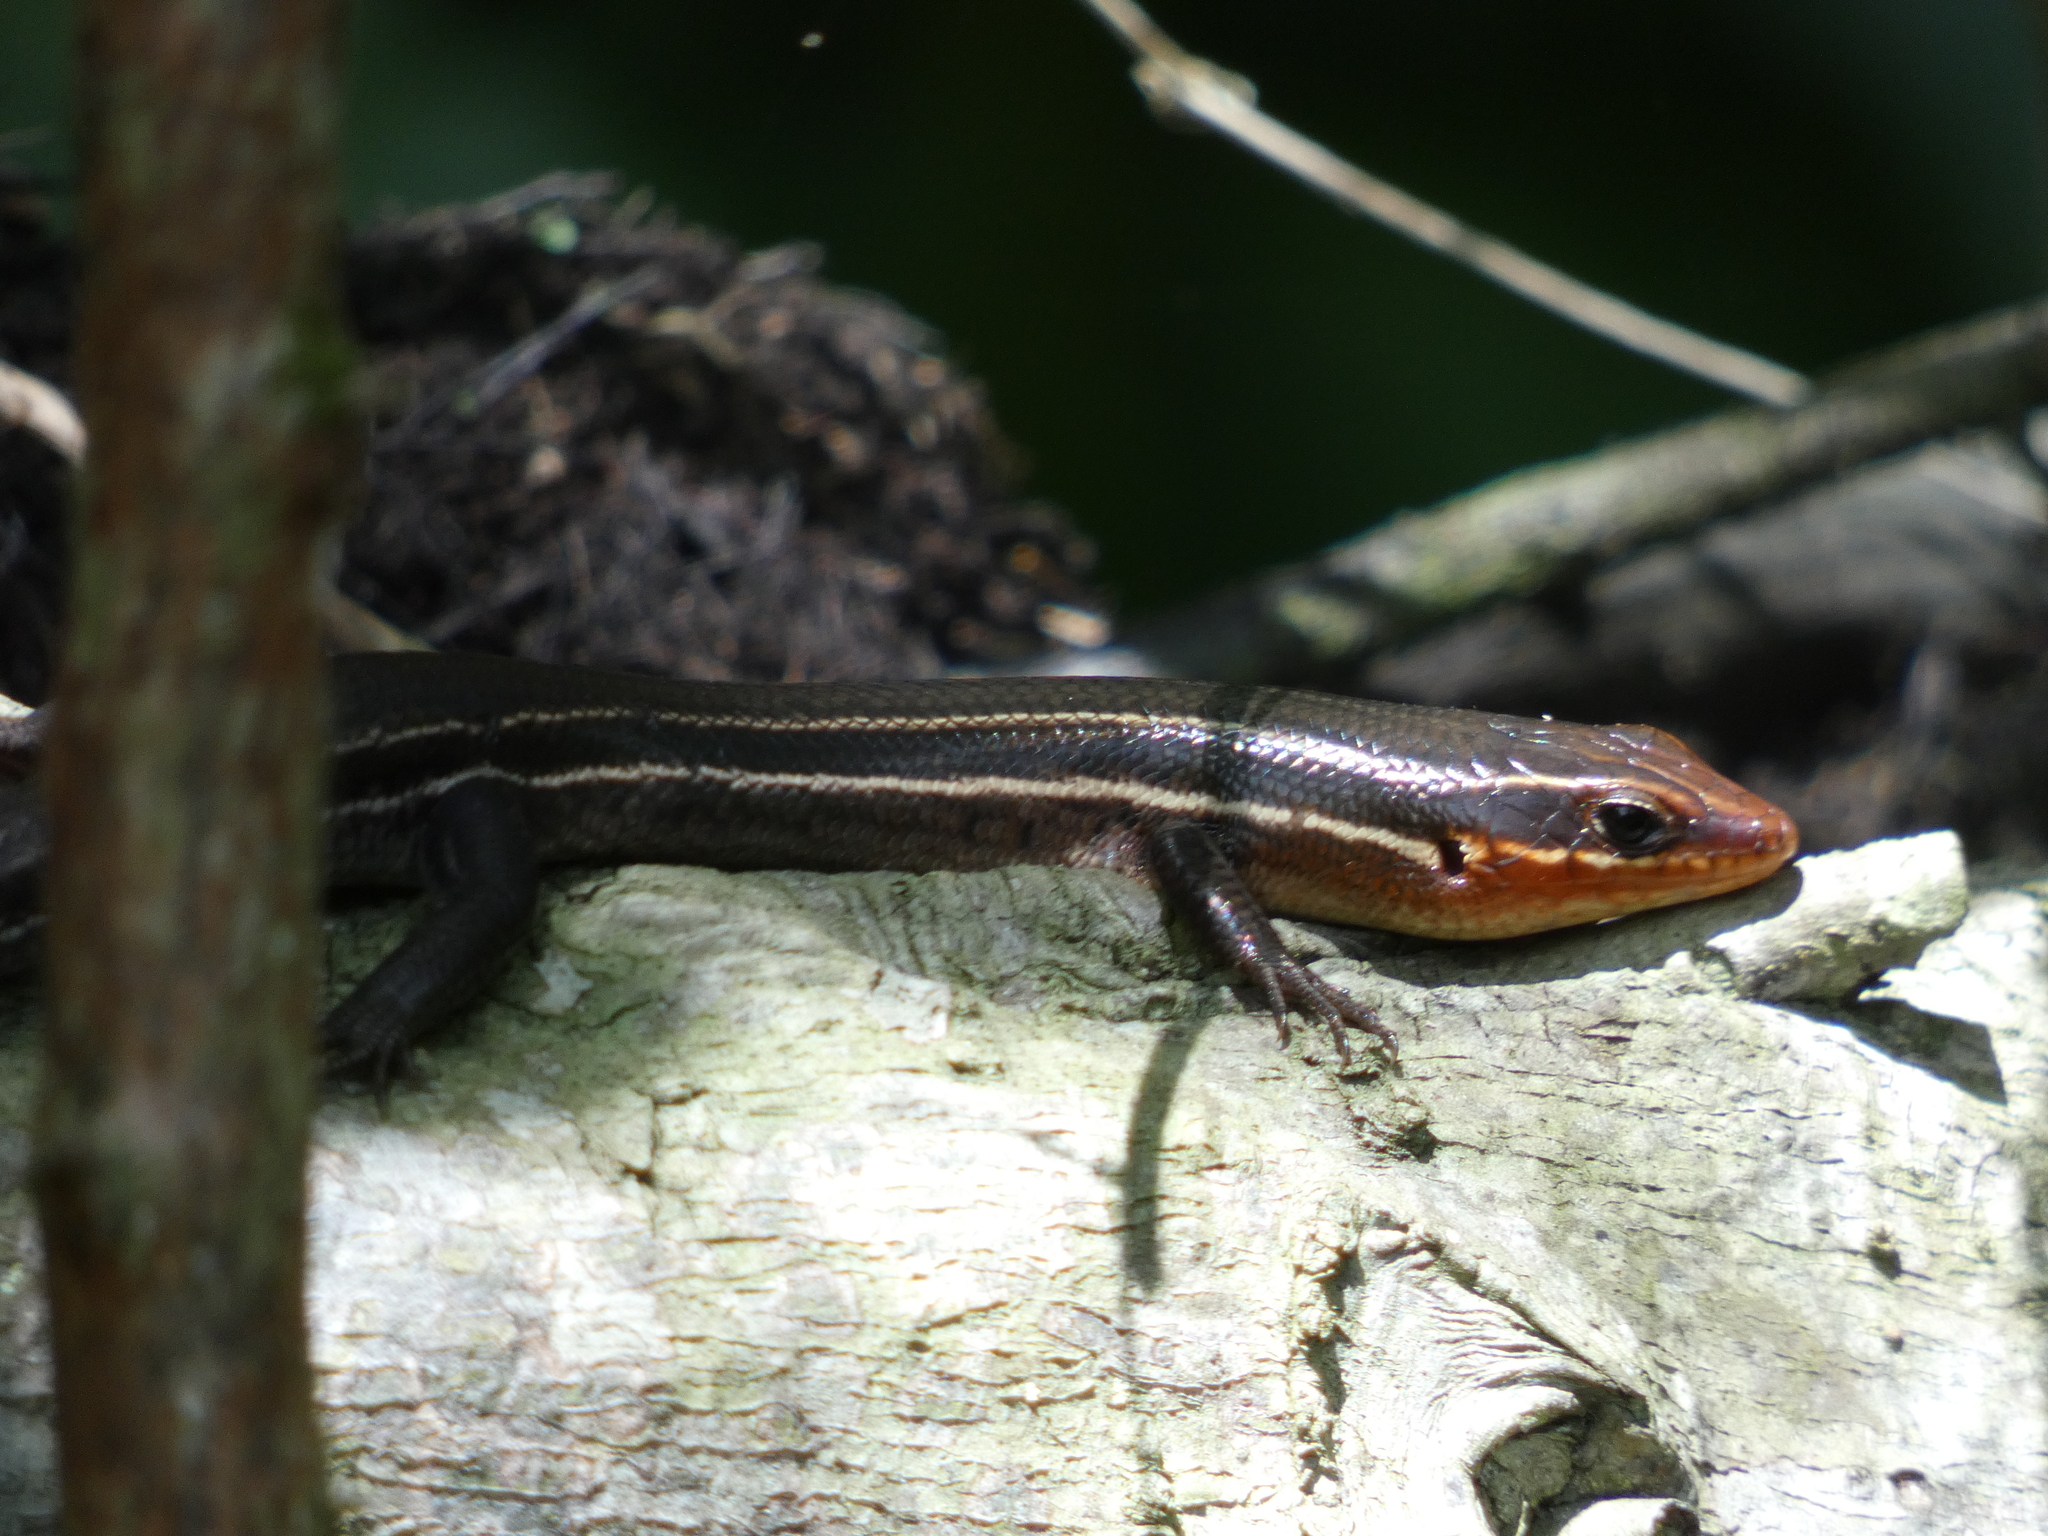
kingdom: Animalia
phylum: Chordata
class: Squamata
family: Scincidae
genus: Plestiodon
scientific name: Plestiodon inexpectatus
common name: Southeastern five-lined skink
